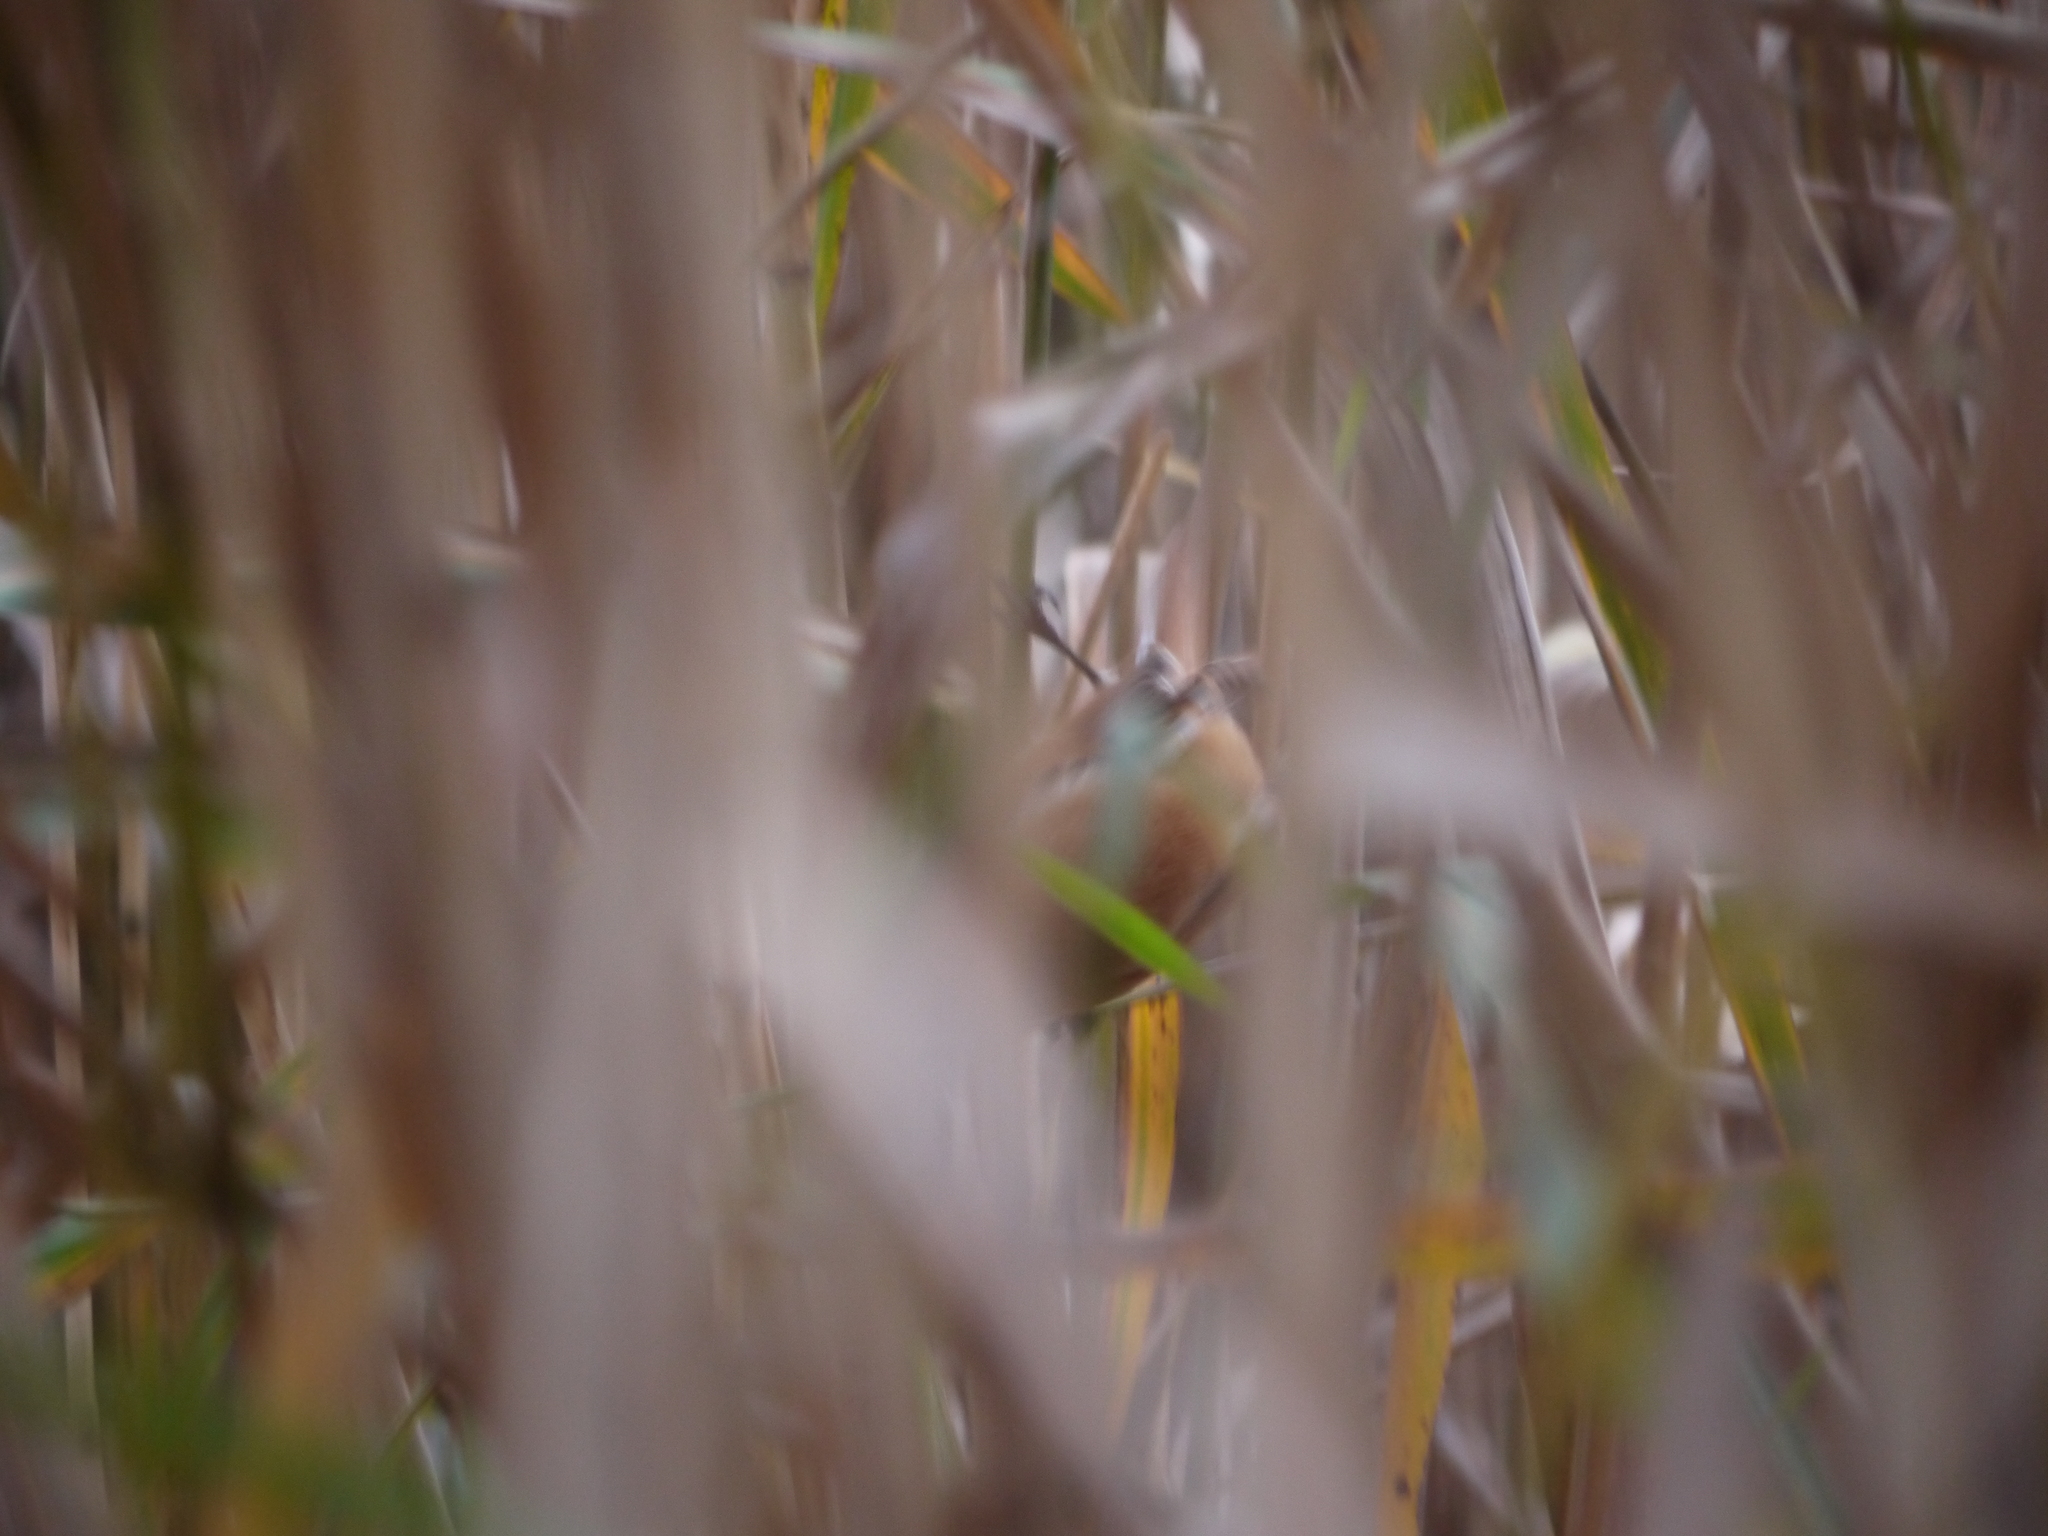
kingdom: Animalia
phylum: Chordata
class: Aves
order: Passeriformes
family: Panuridae
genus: Panurus
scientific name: Panurus biarmicus
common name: Bearded reedling
